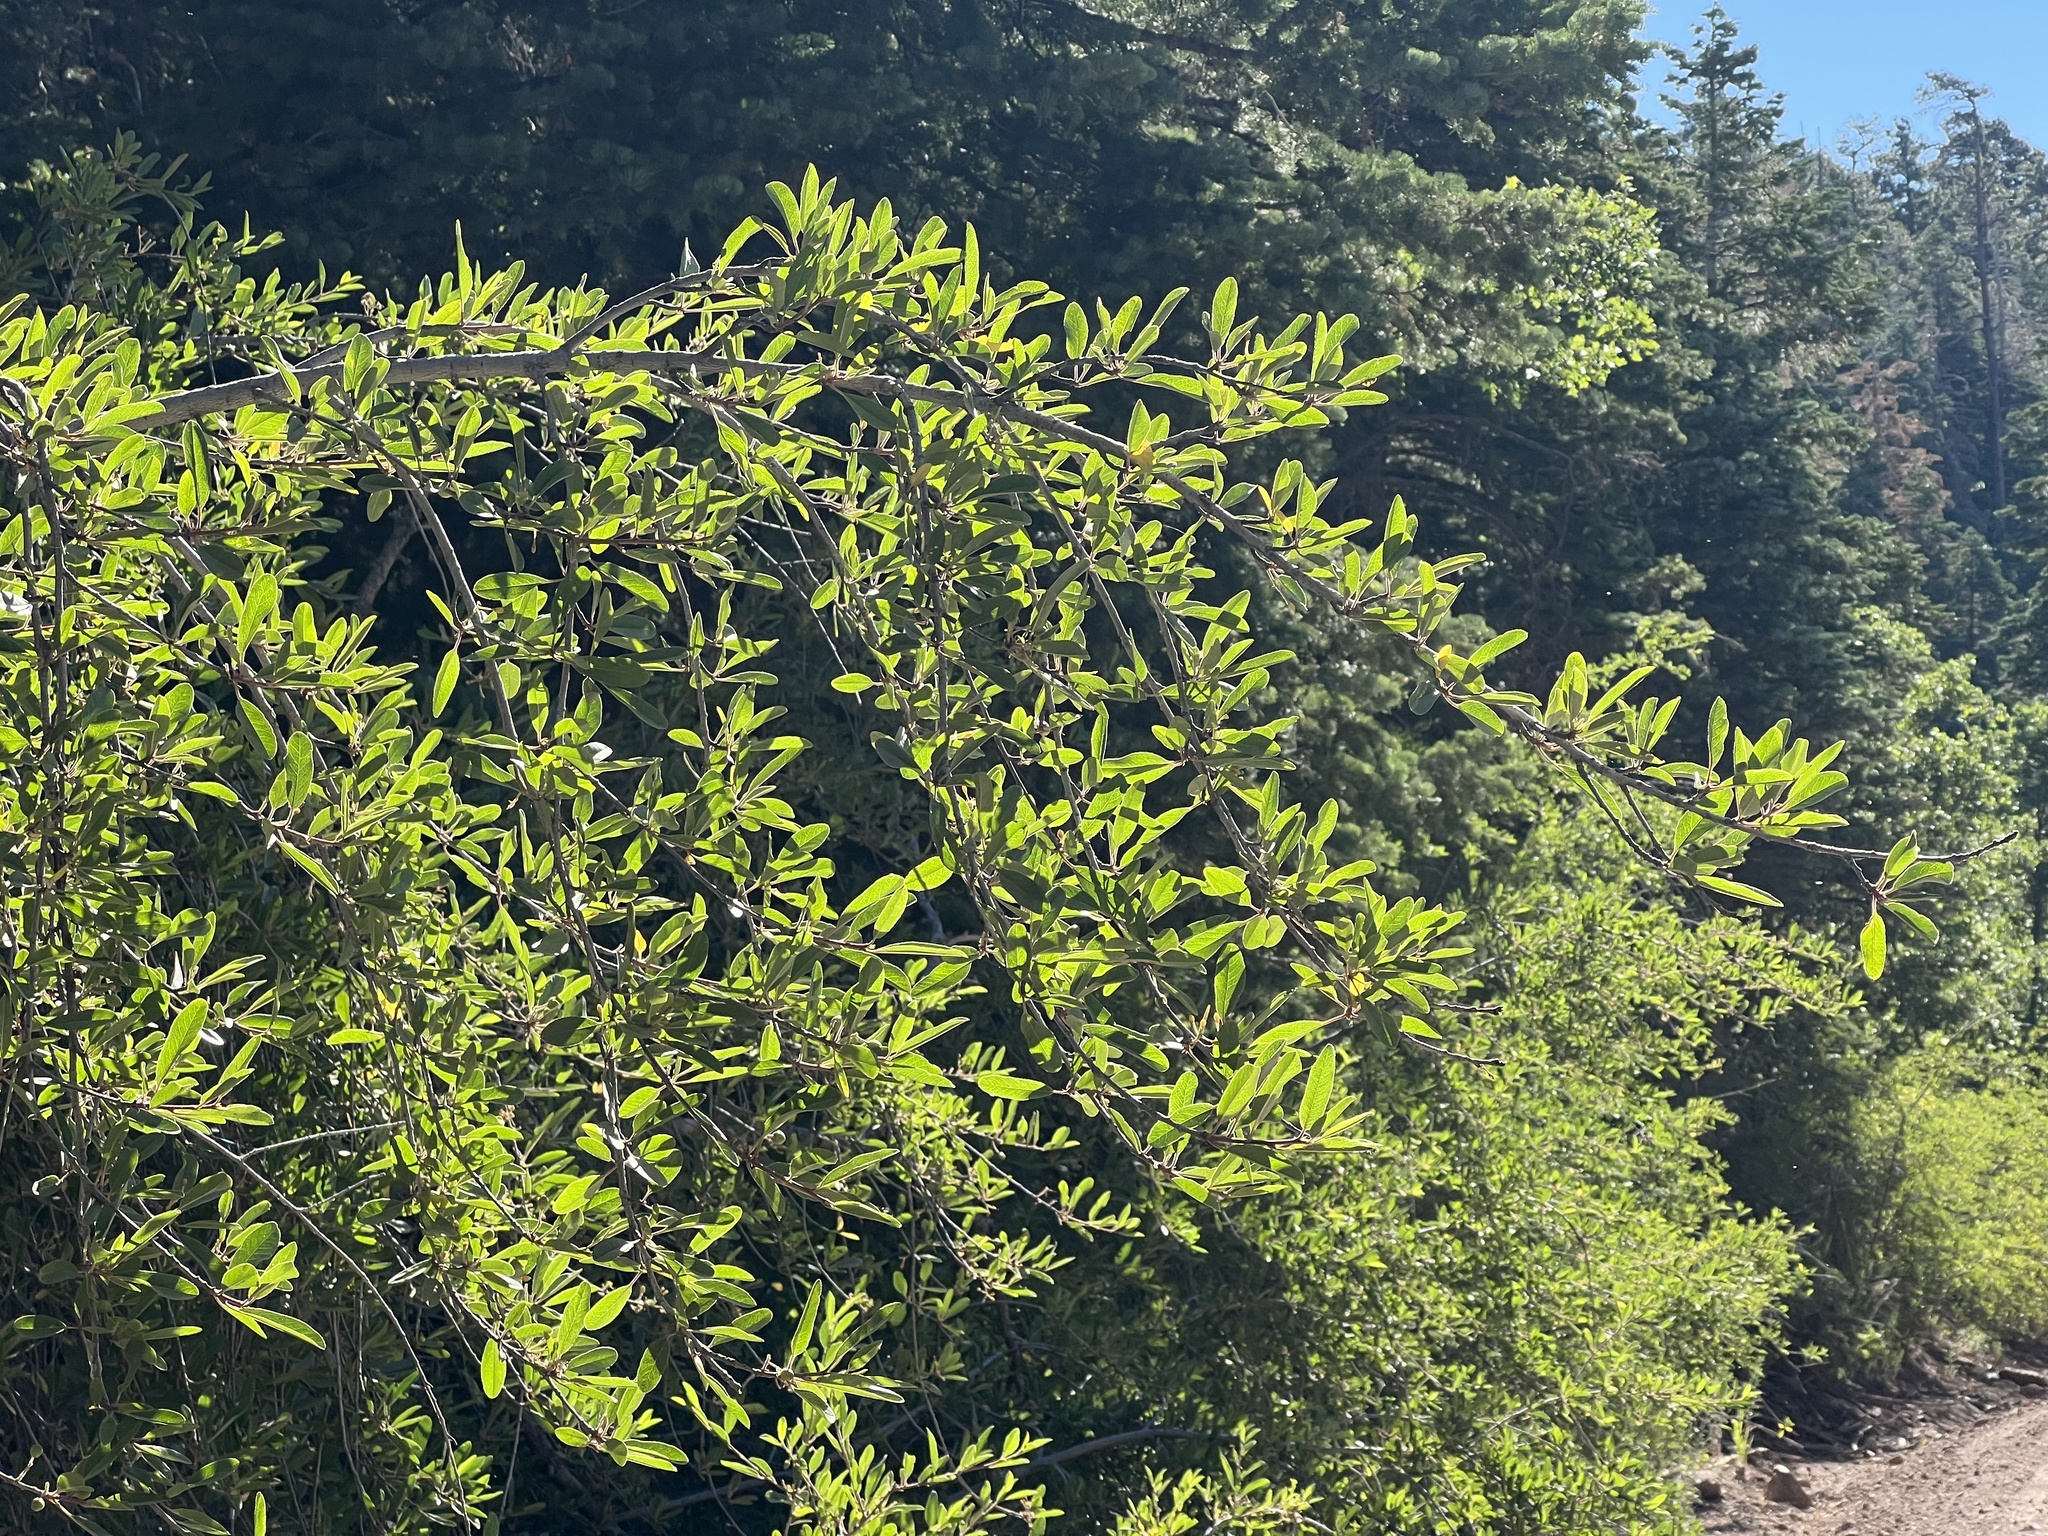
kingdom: Plantae
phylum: Tracheophyta
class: Magnoliopsida
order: Rosales
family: Rosaceae
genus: Prunus
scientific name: Prunus emarginata
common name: Bitter cherry
